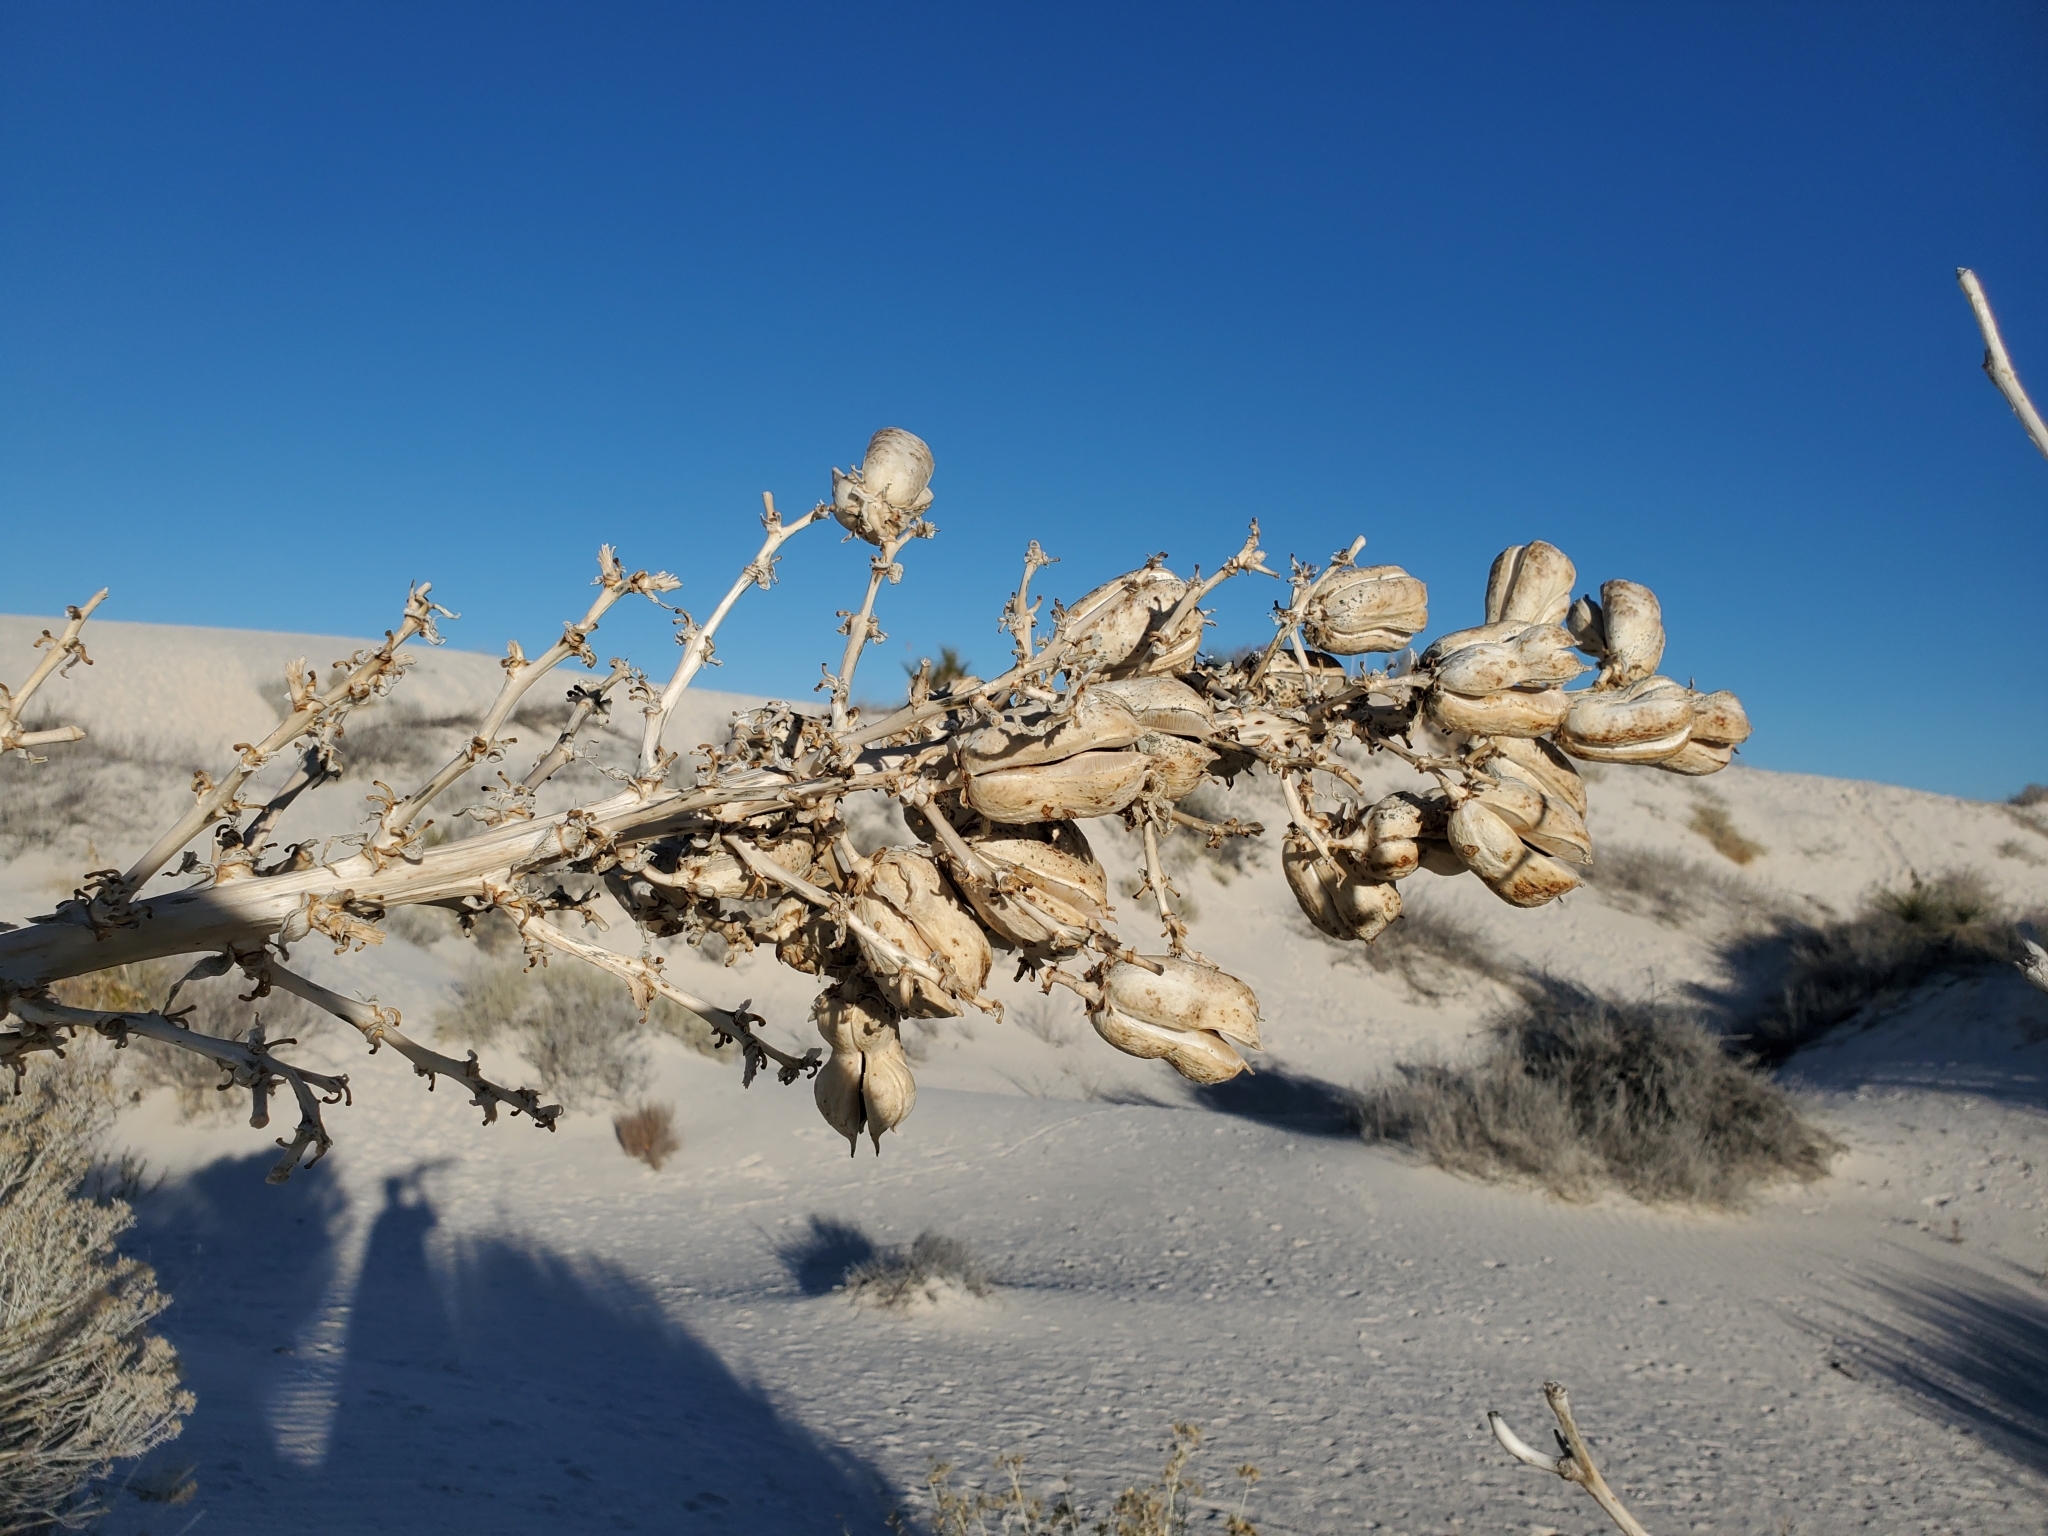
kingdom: Plantae
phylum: Tracheophyta
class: Liliopsida
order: Asparagales
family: Asparagaceae
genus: Yucca
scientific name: Yucca elata
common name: Palmella
